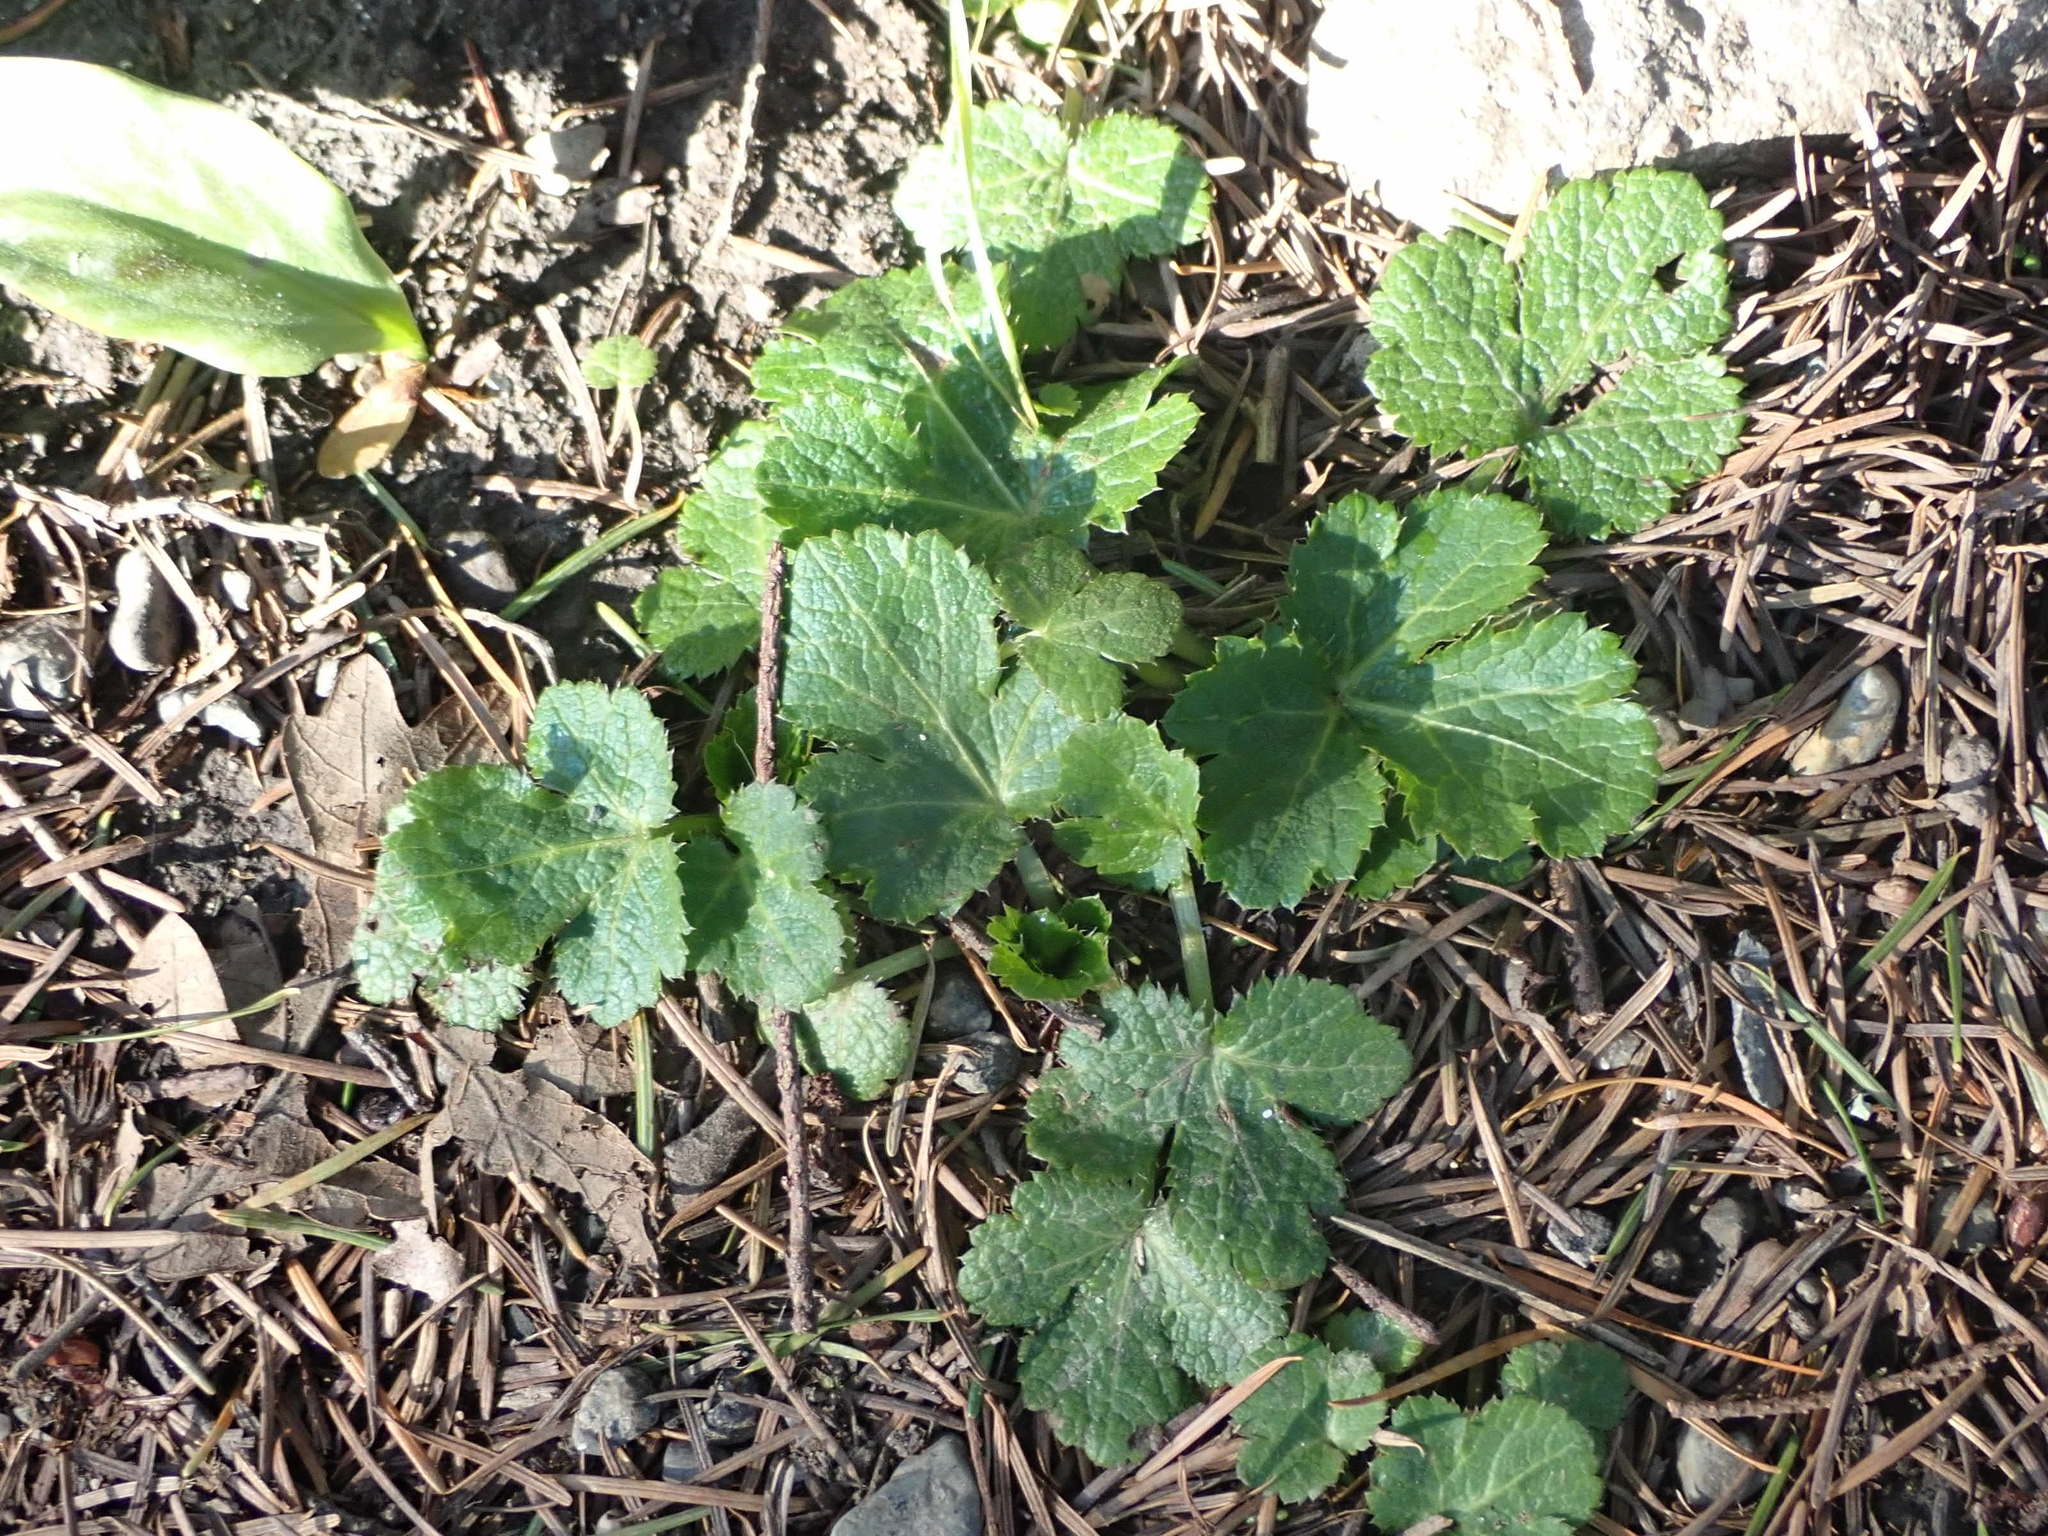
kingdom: Plantae
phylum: Tracheophyta
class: Magnoliopsida
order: Apiales
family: Apiaceae
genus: Sanicula
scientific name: Sanicula crassicaulis
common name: Western snakeroot
